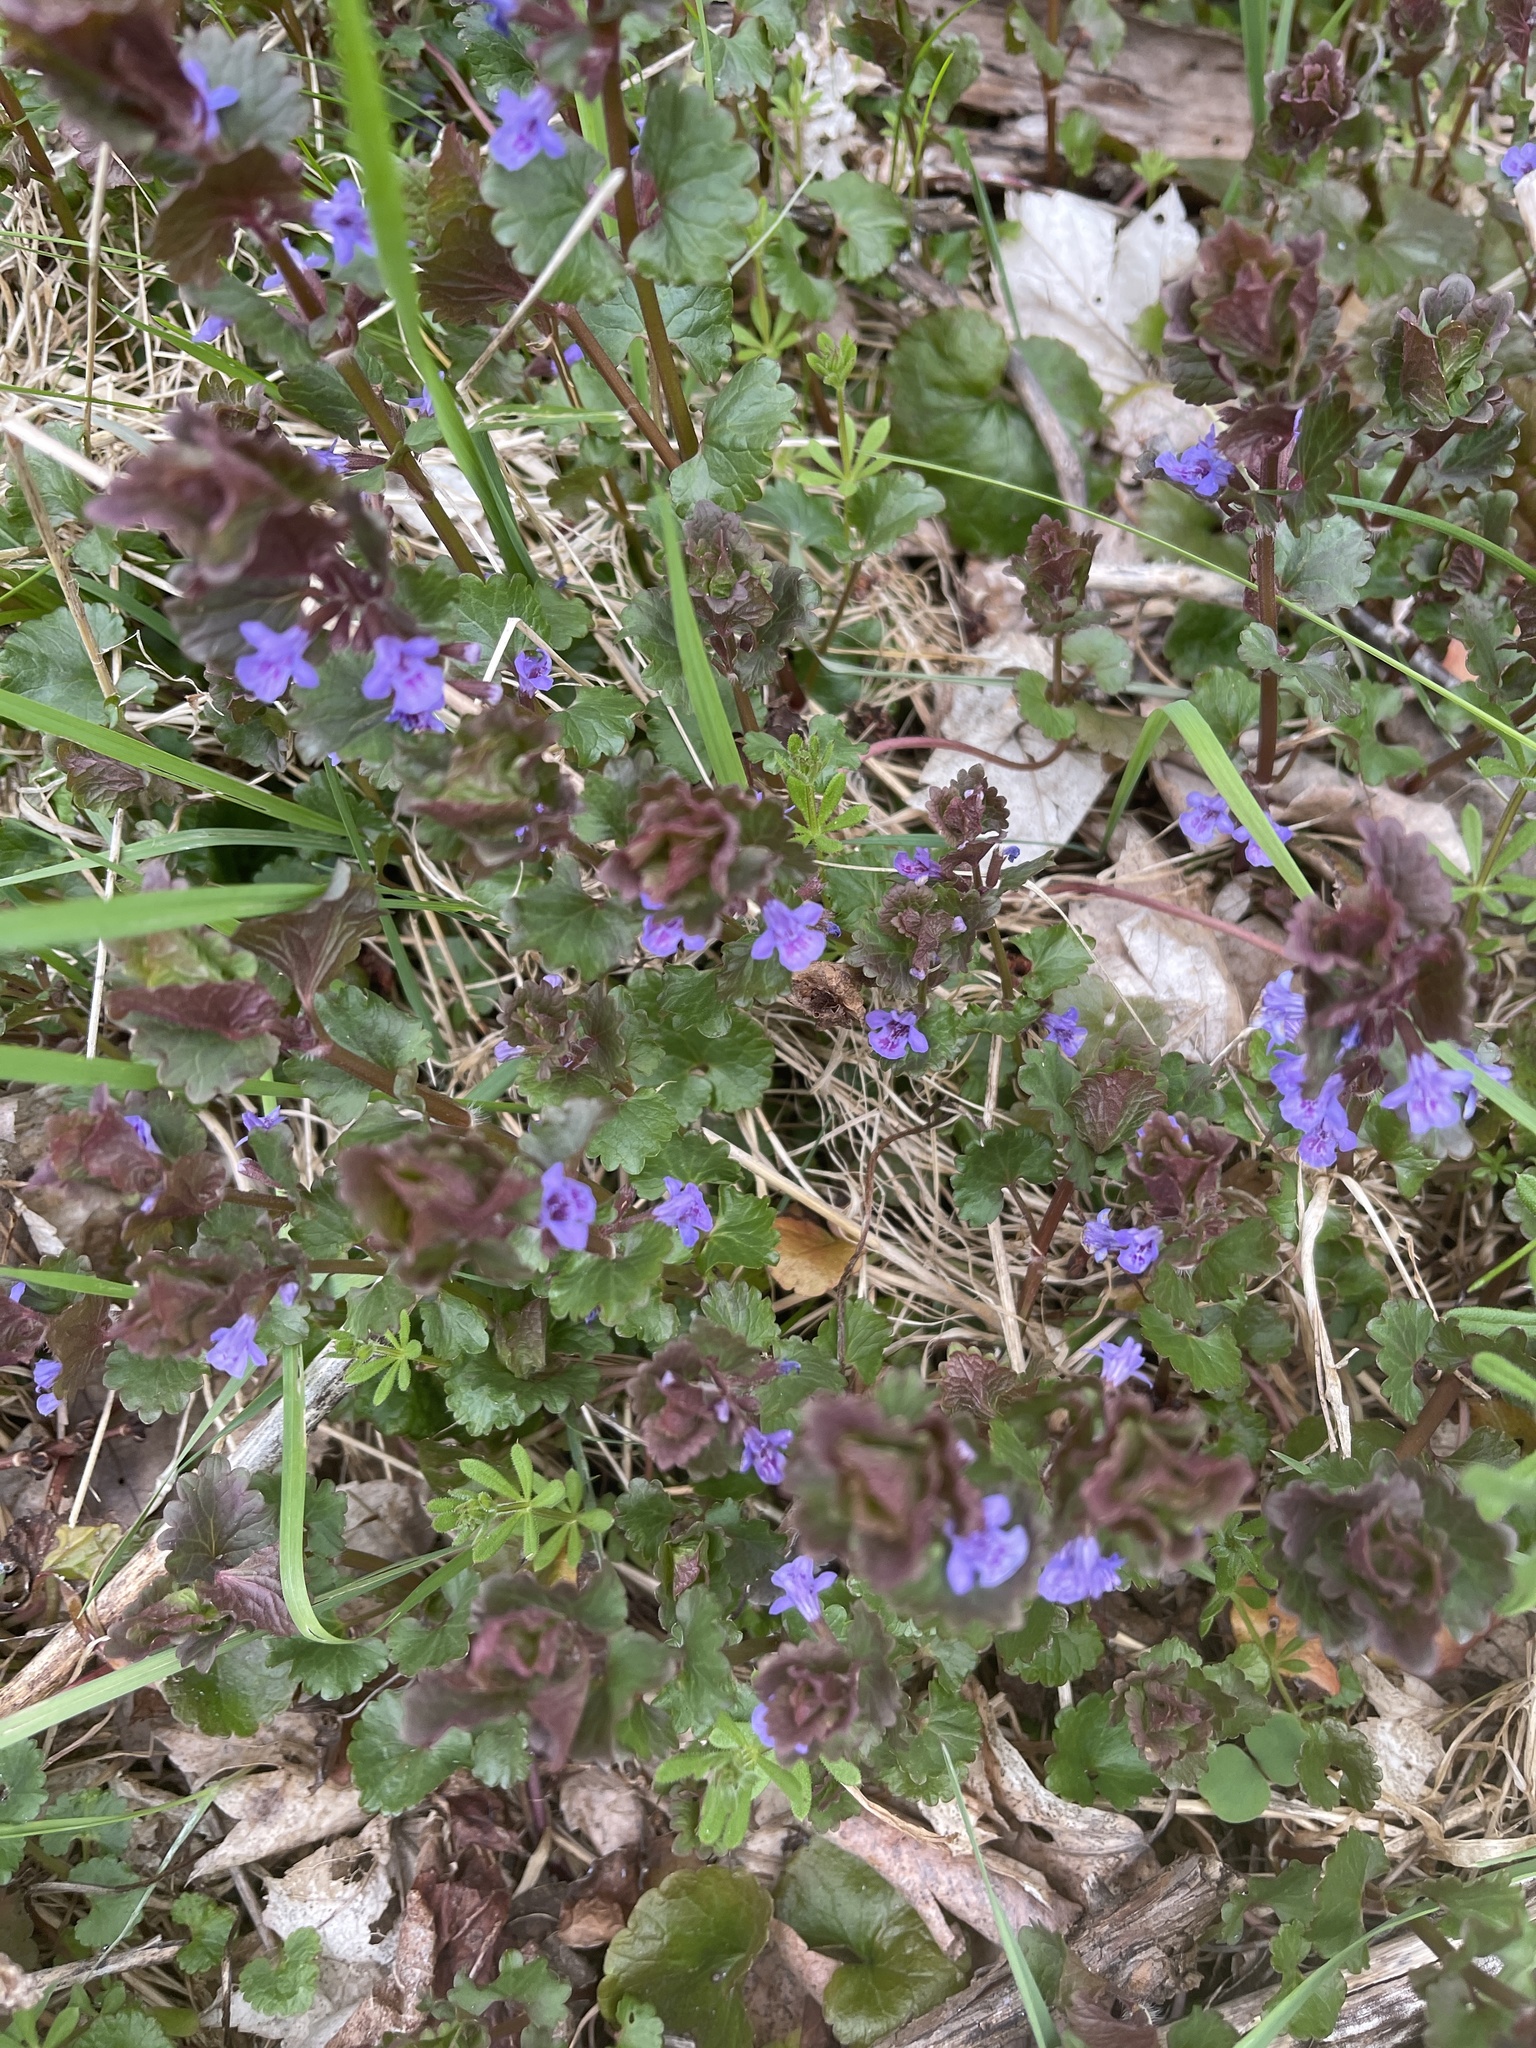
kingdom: Plantae
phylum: Tracheophyta
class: Magnoliopsida
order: Lamiales
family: Lamiaceae
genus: Glechoma
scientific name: Glechoma hederacea
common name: Ground ivy
